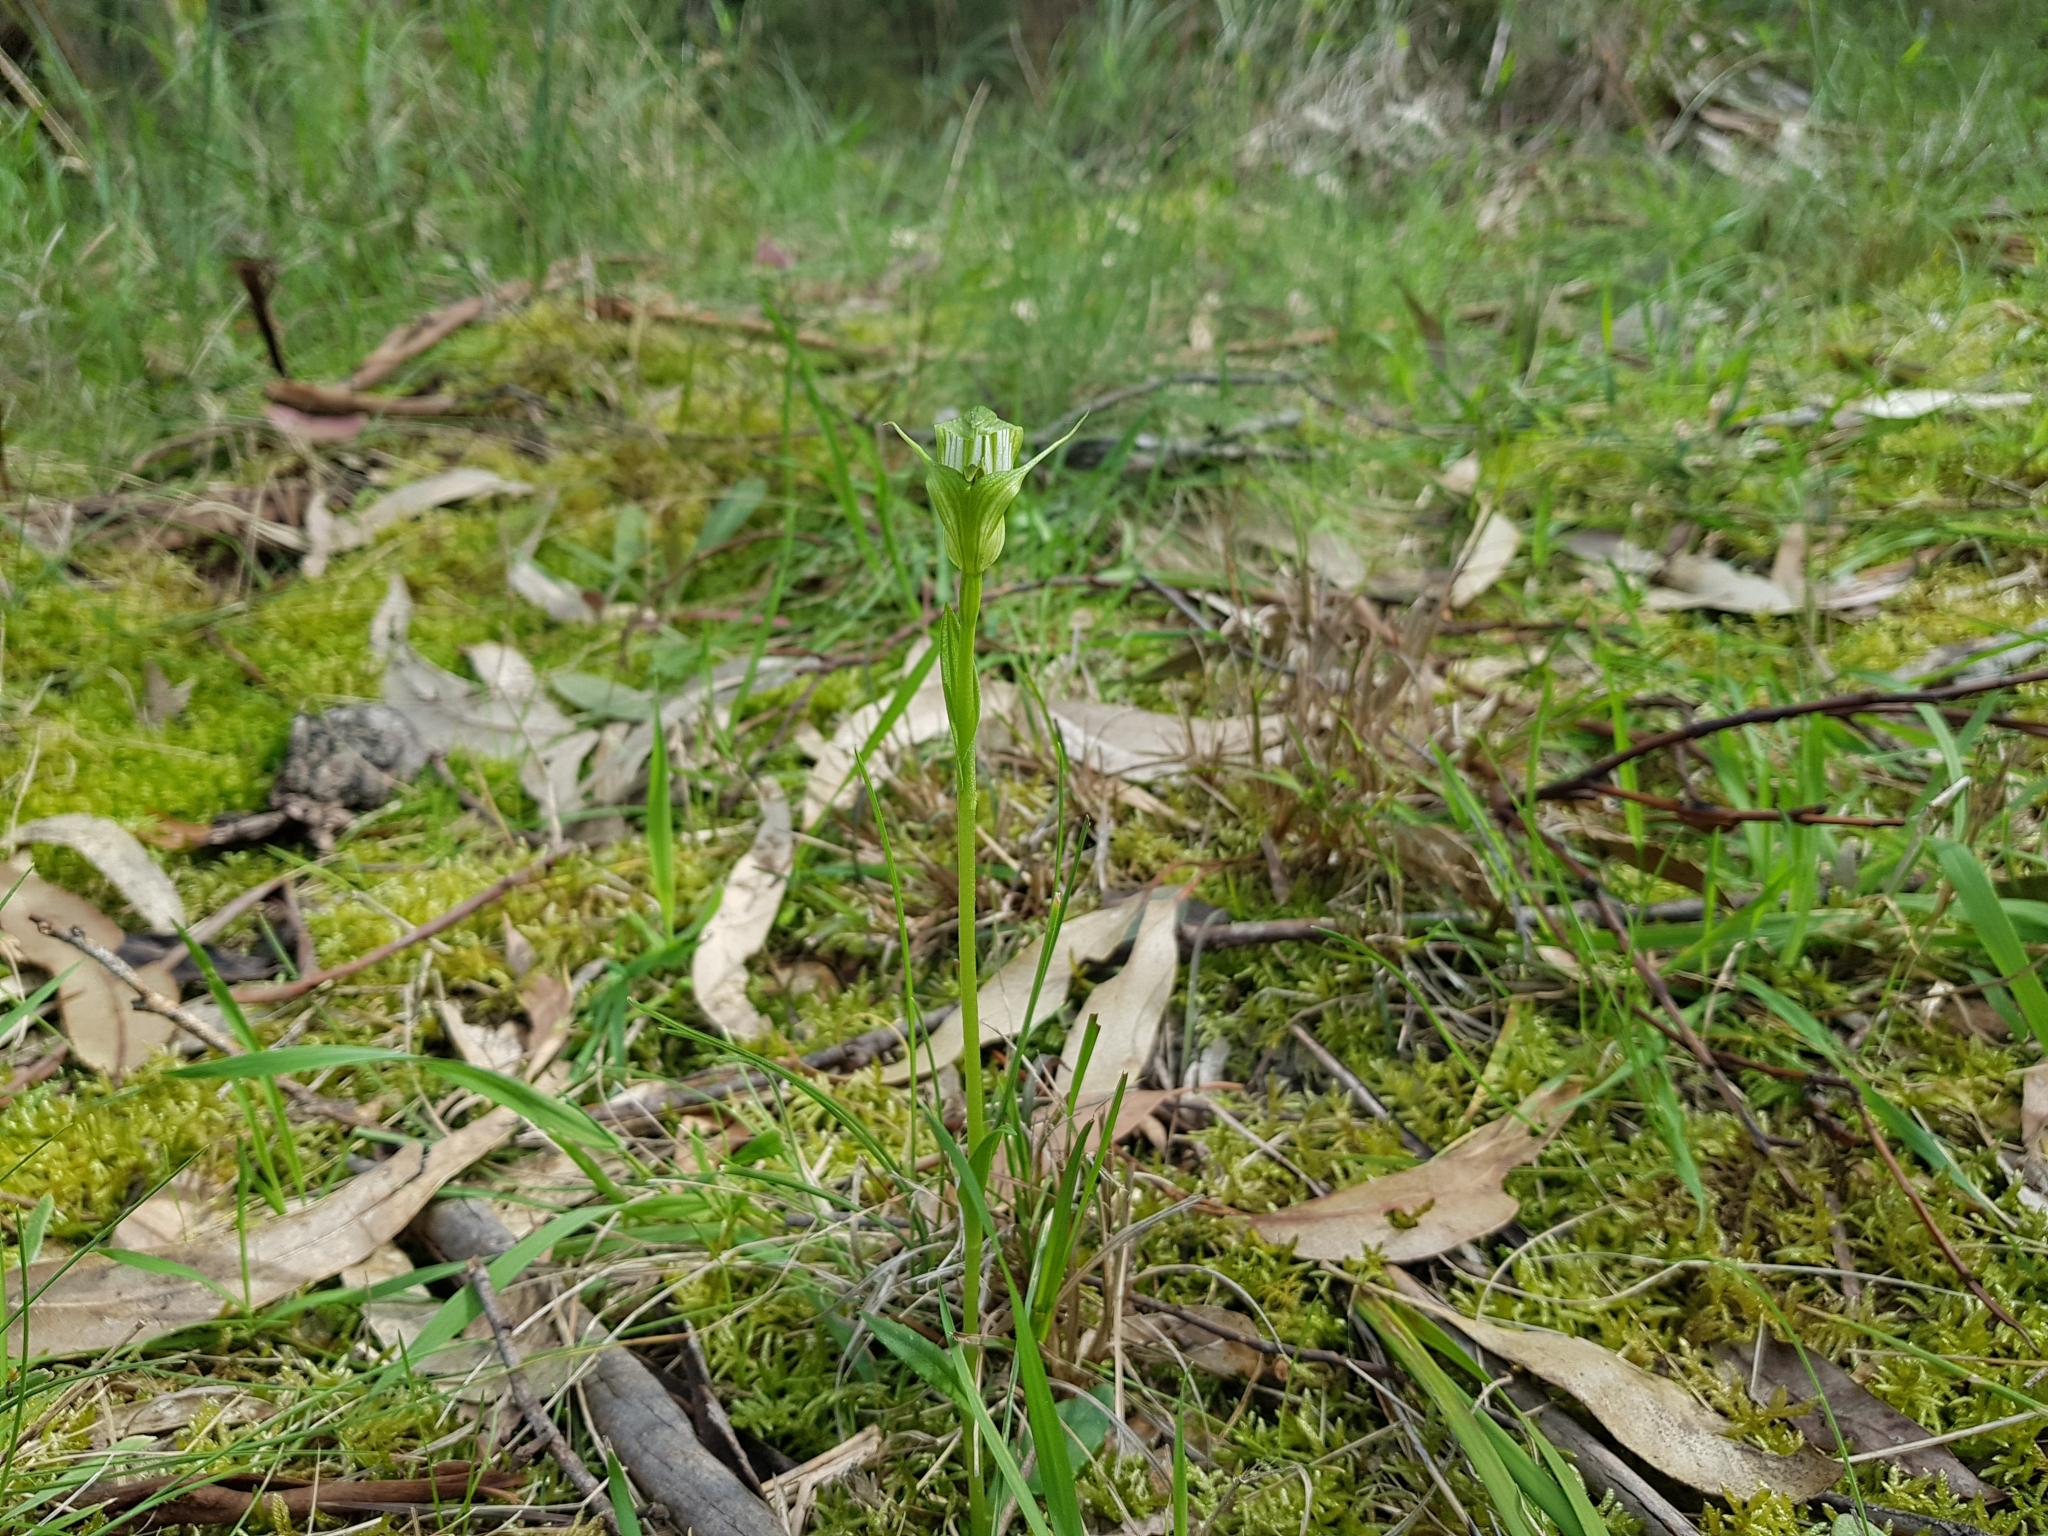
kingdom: Plantae
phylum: Tracheophyta
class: Liliopsida
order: Asparagales
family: Orchidaceae
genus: Pterostylis
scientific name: Pterostylis alpina
